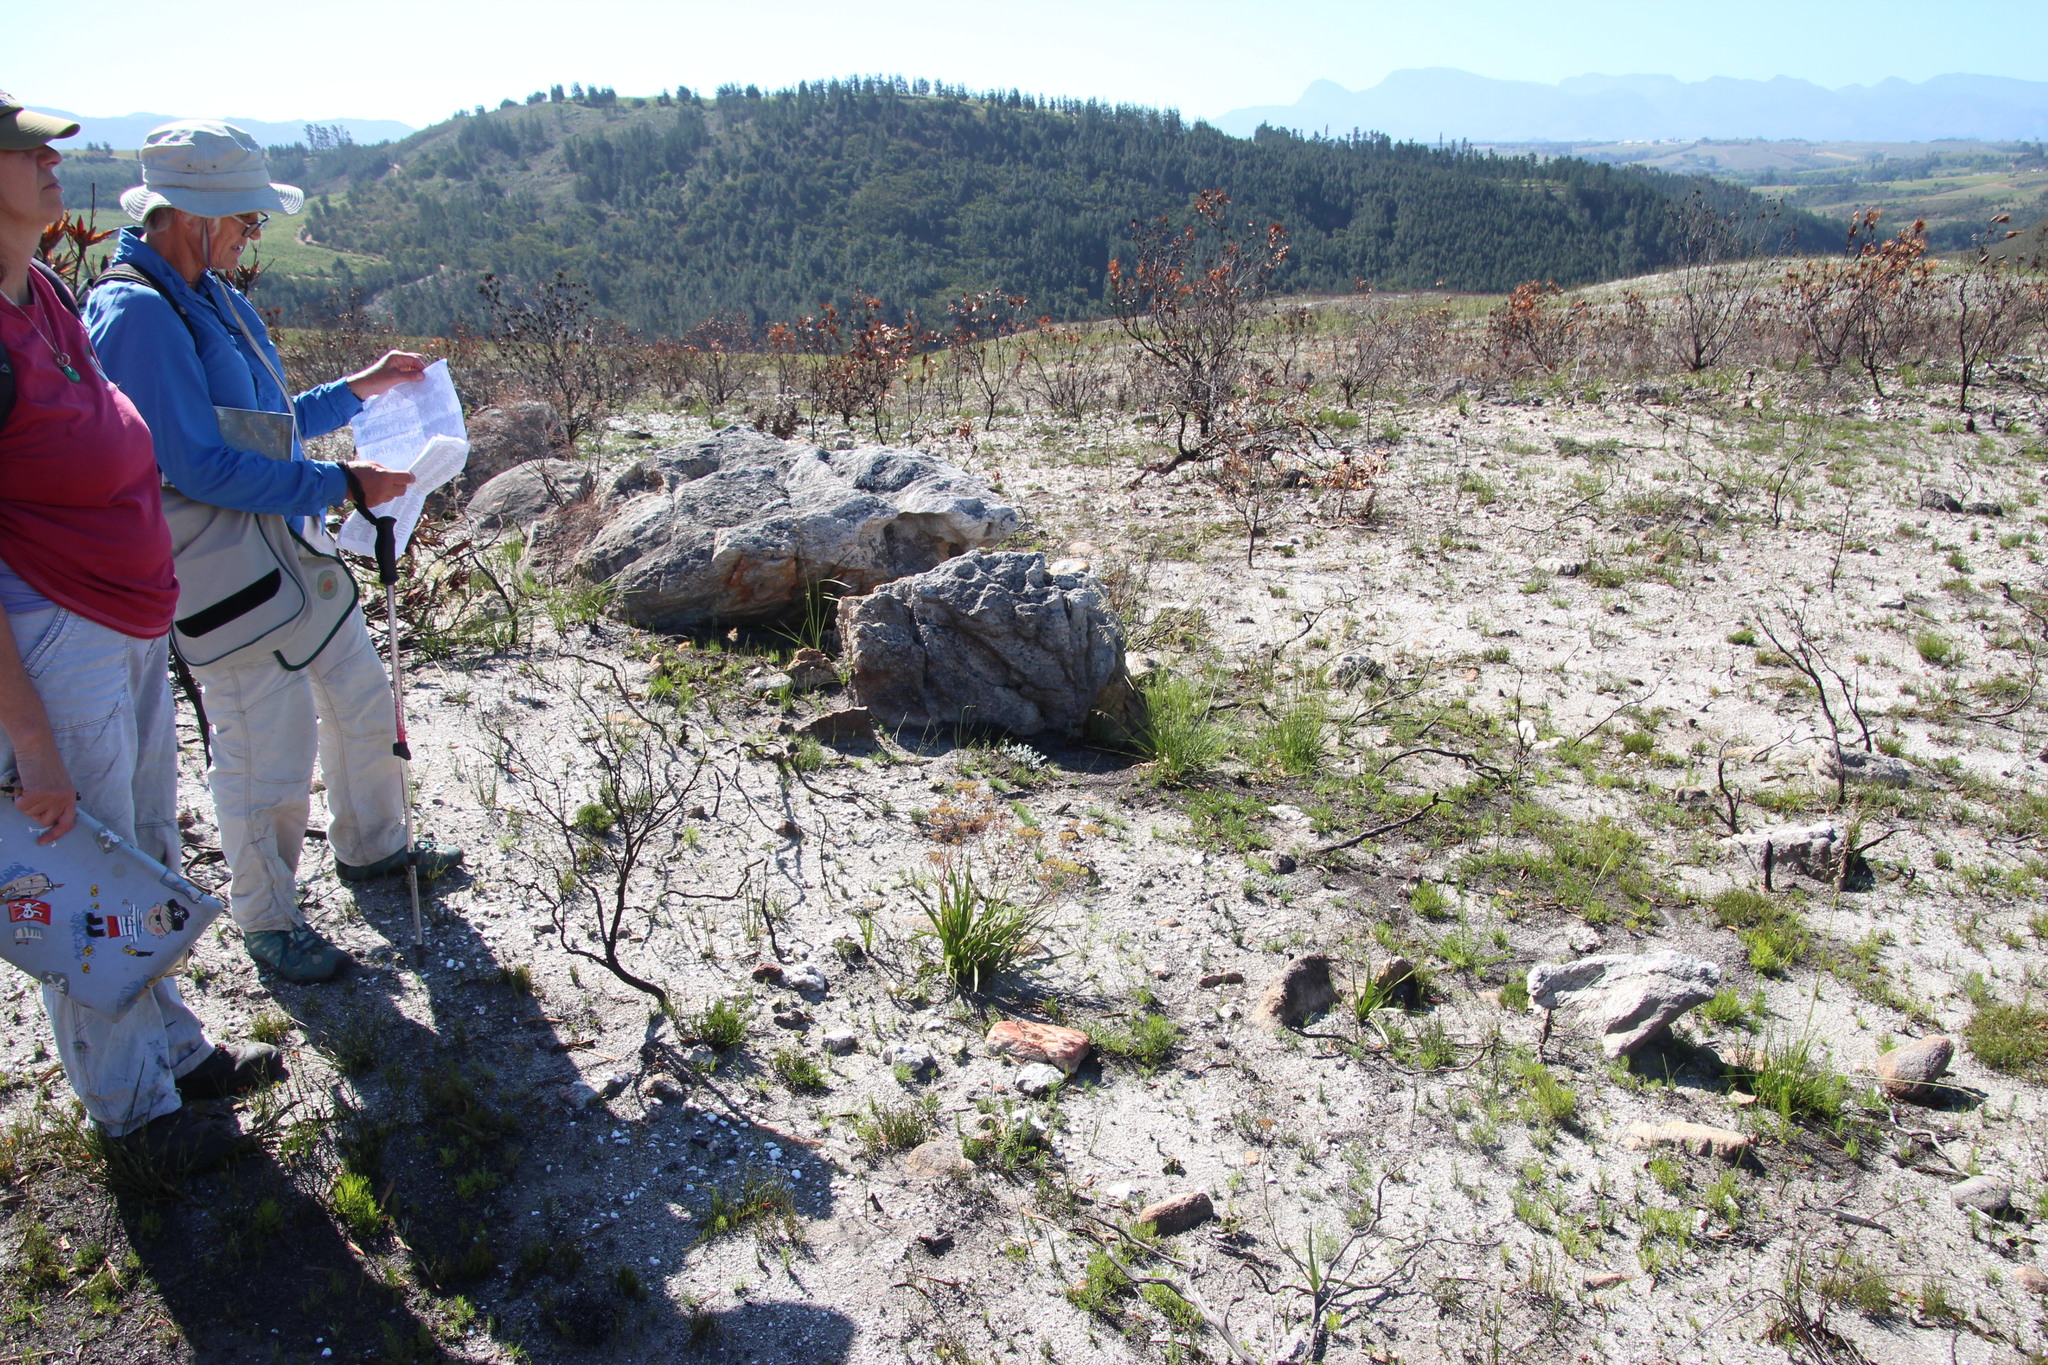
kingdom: Plantae
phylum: Tracheophyta
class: Magnoliopsida
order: Asterales
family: Asteraceae
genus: Corymbium
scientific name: Corymbium cymosum
